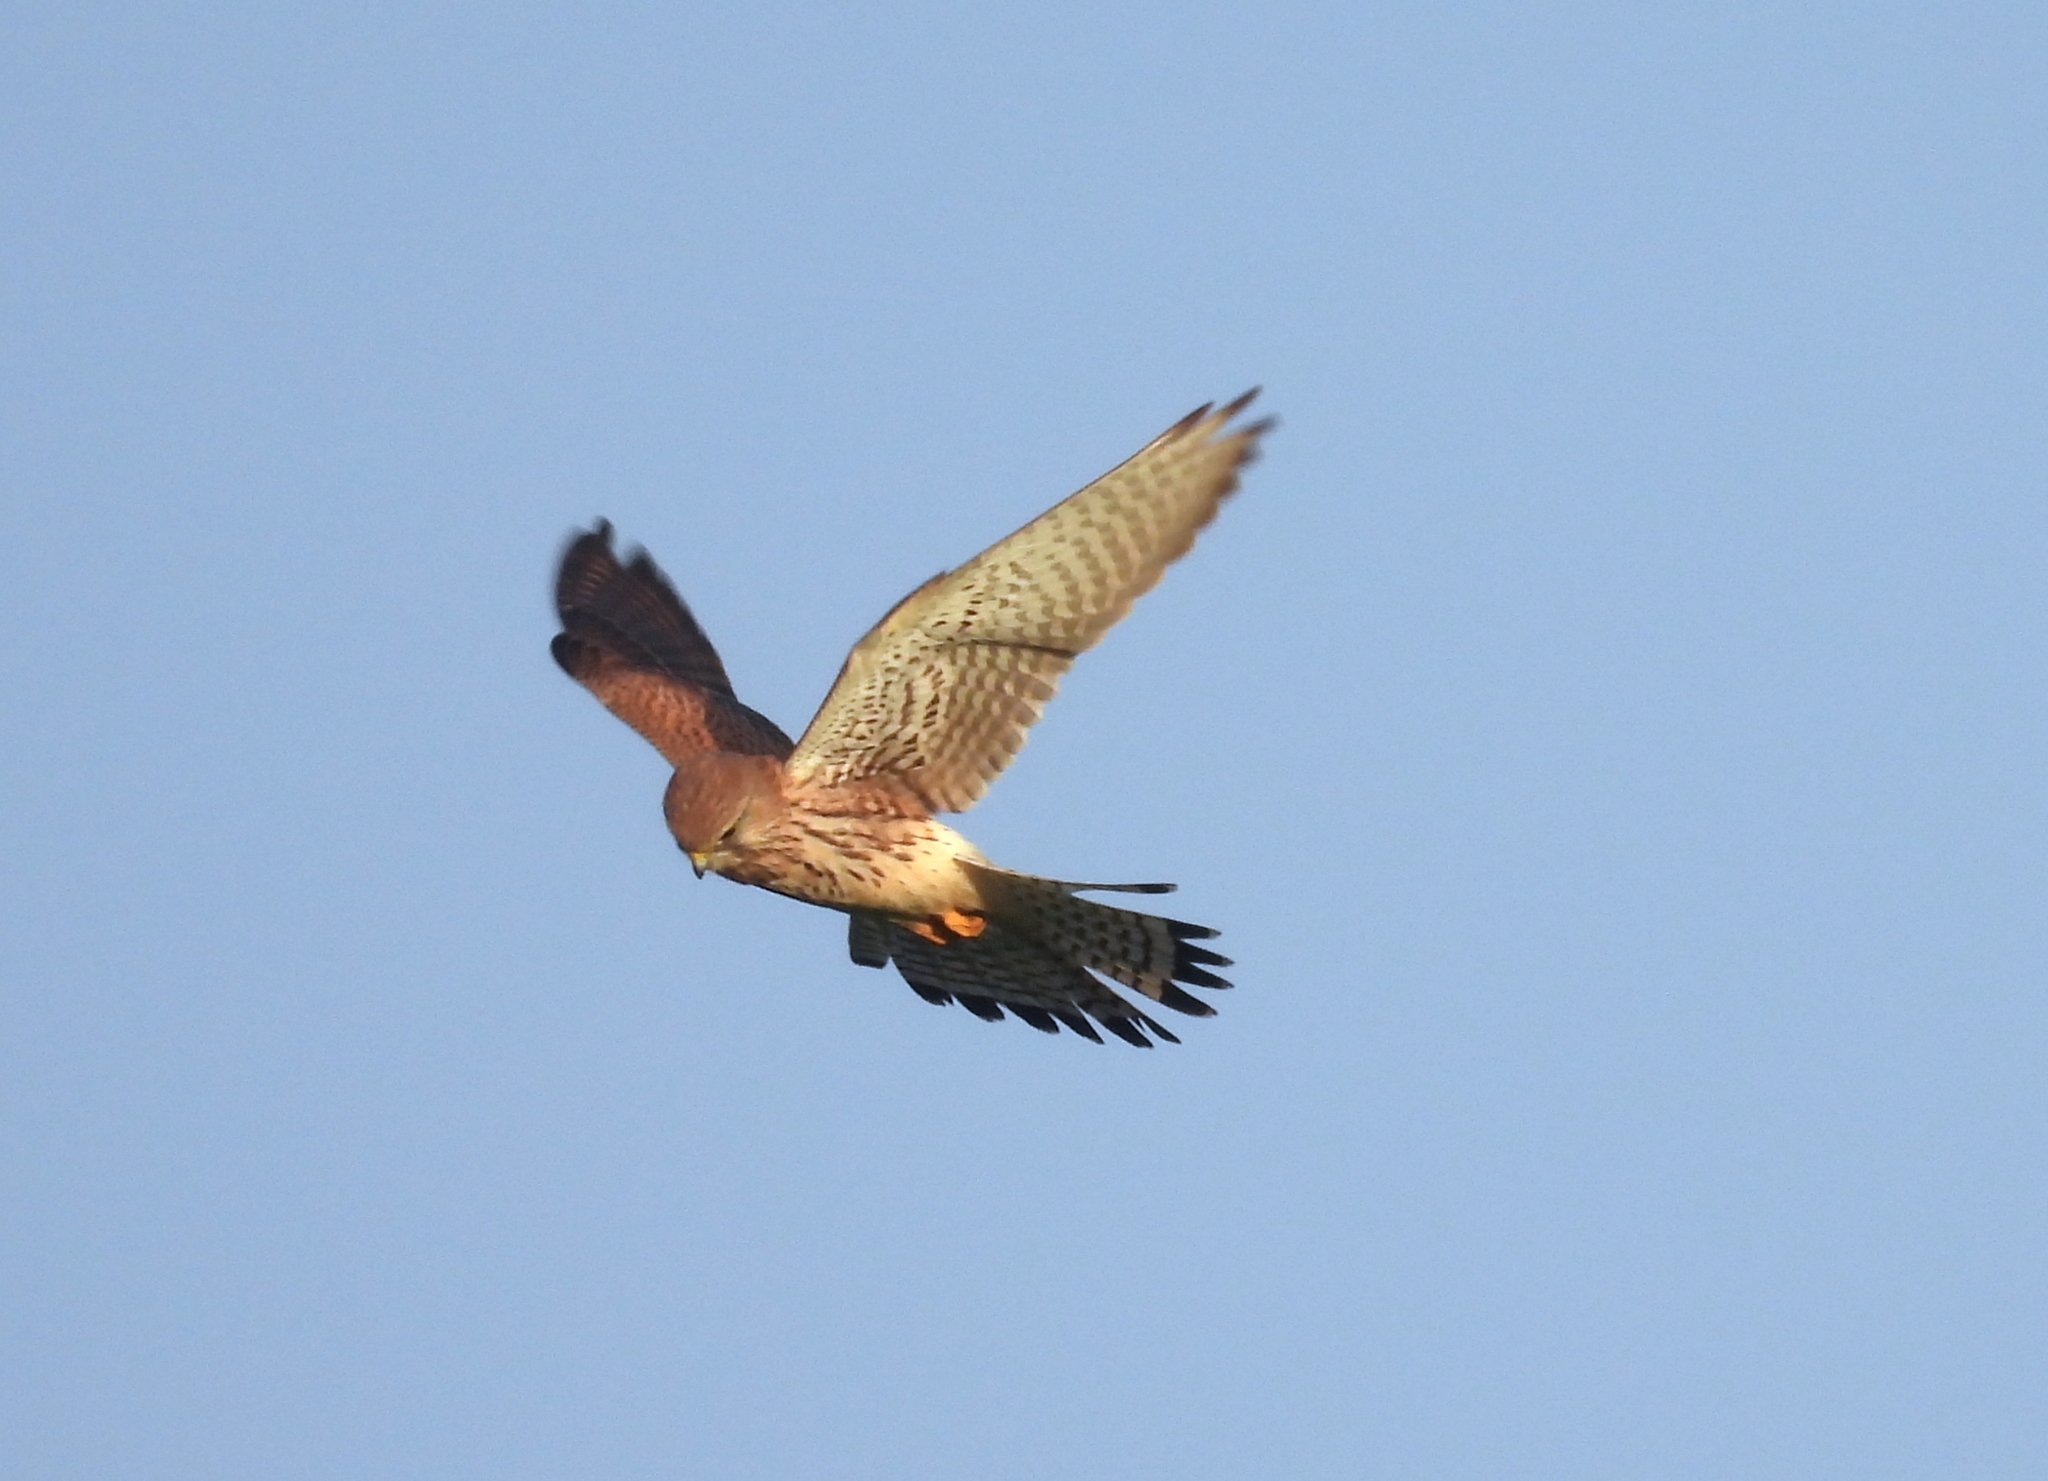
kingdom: Animalia
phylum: Chordata
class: Aves
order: Falconiformes
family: Falconidae
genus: Falco
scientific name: Falco tinnunculus
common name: Common kestrel
